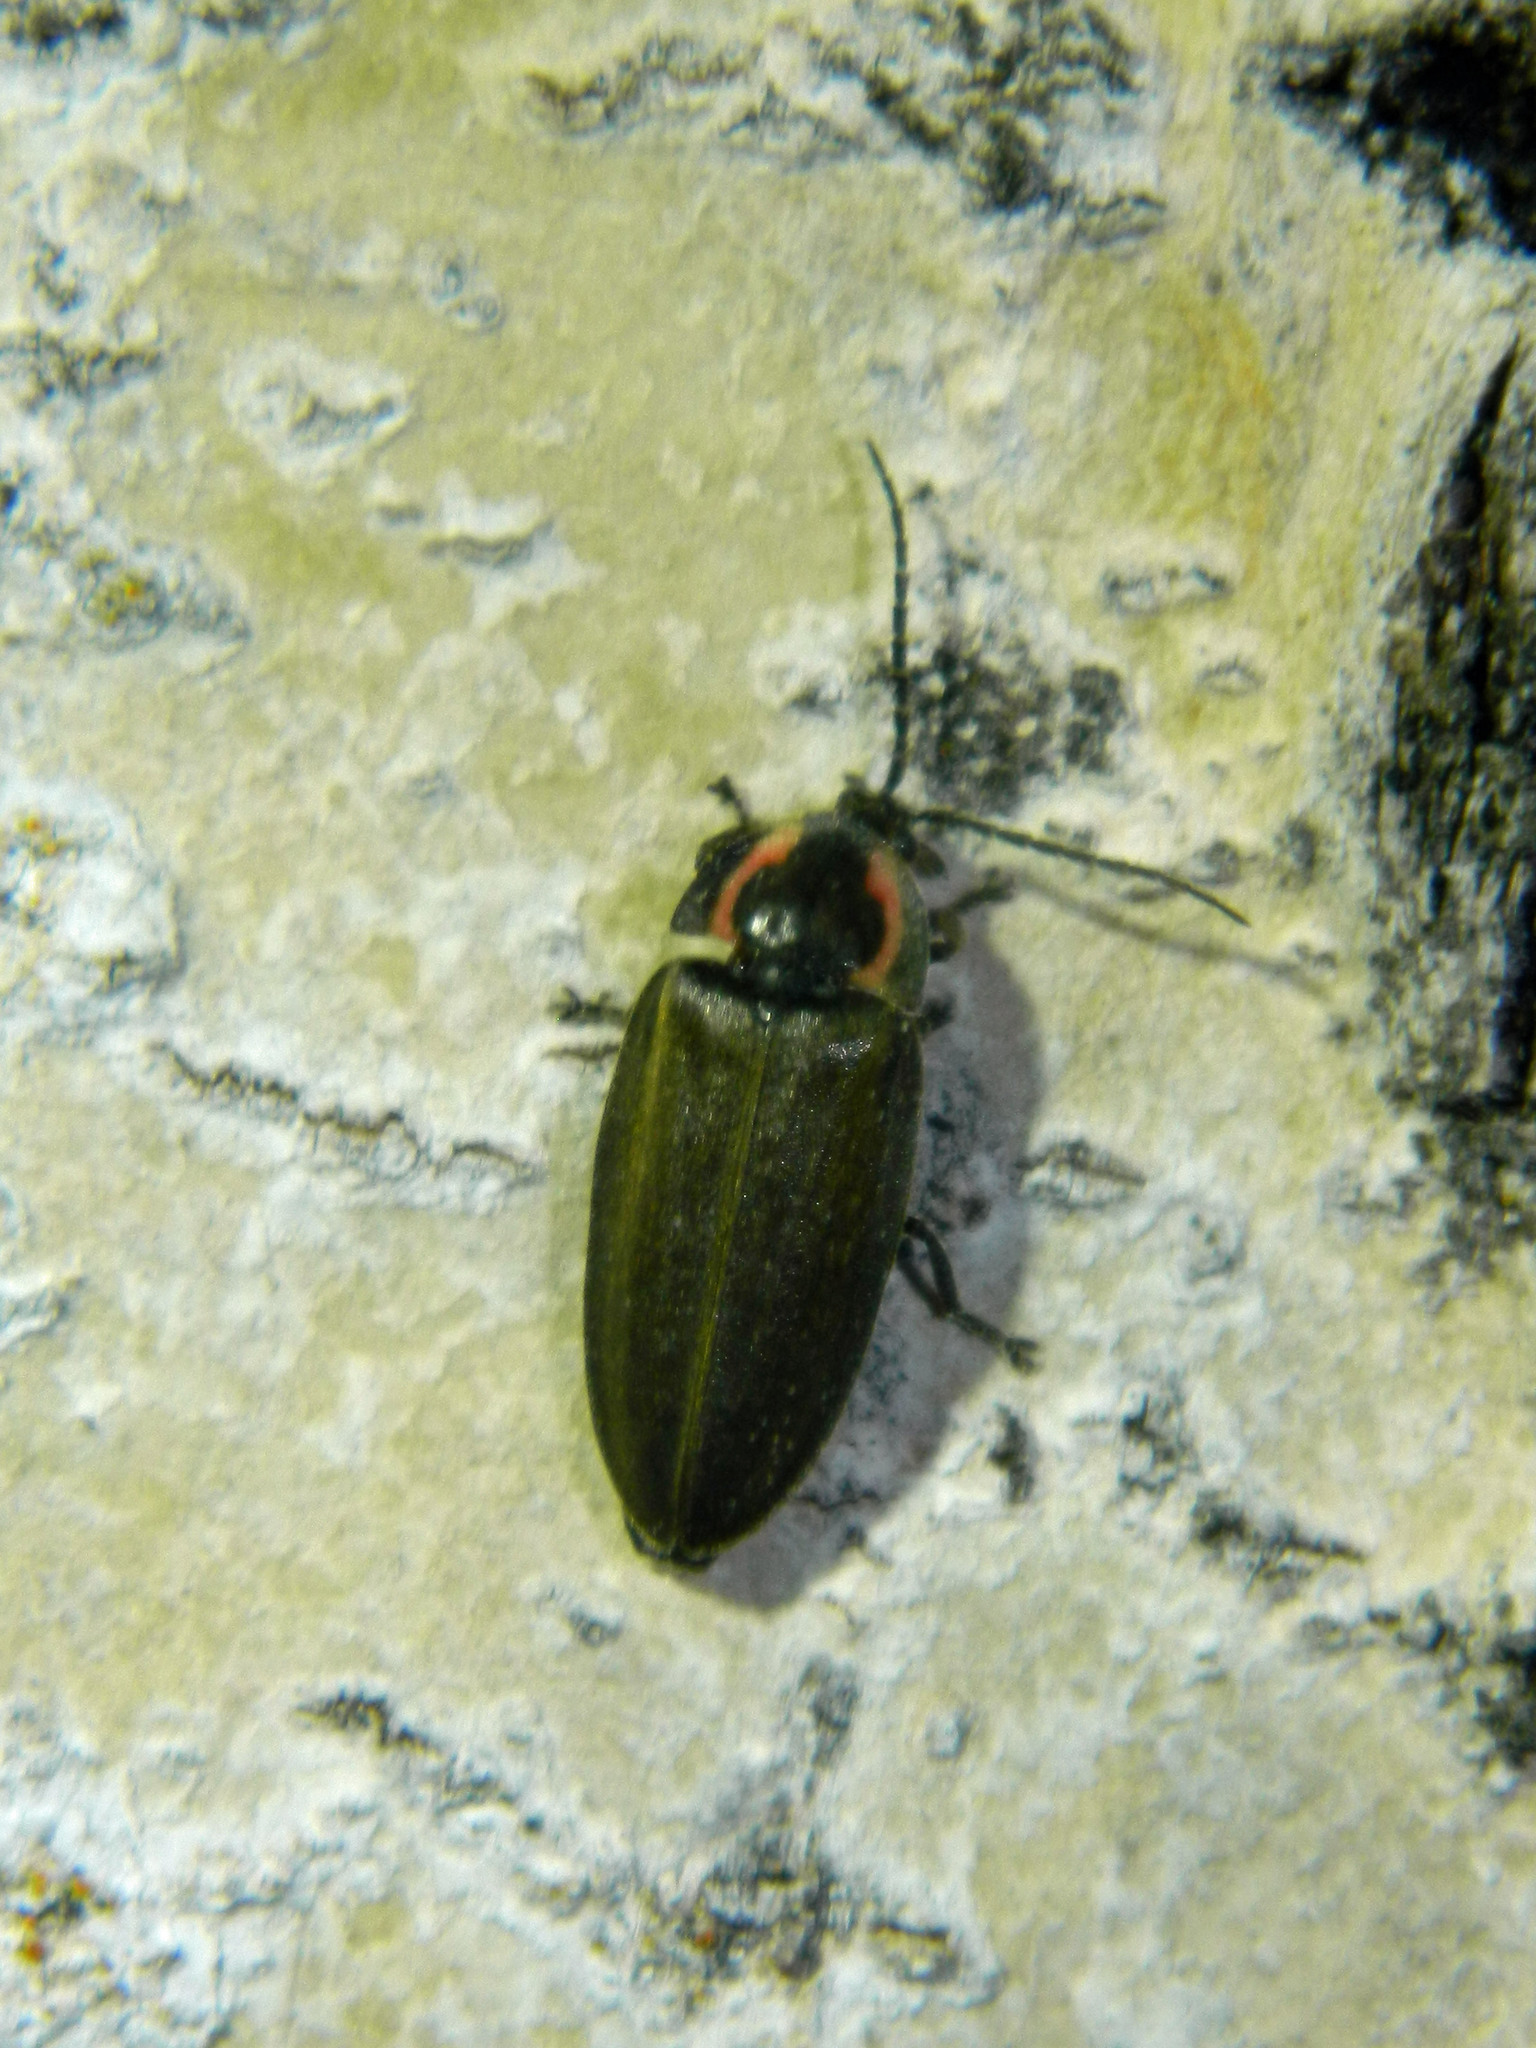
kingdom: Animalia
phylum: Arthropoda
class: Insecta
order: Coleoptera
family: Lampyridae
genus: Photinus
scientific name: Photinus corrusca
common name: Winter firefly
